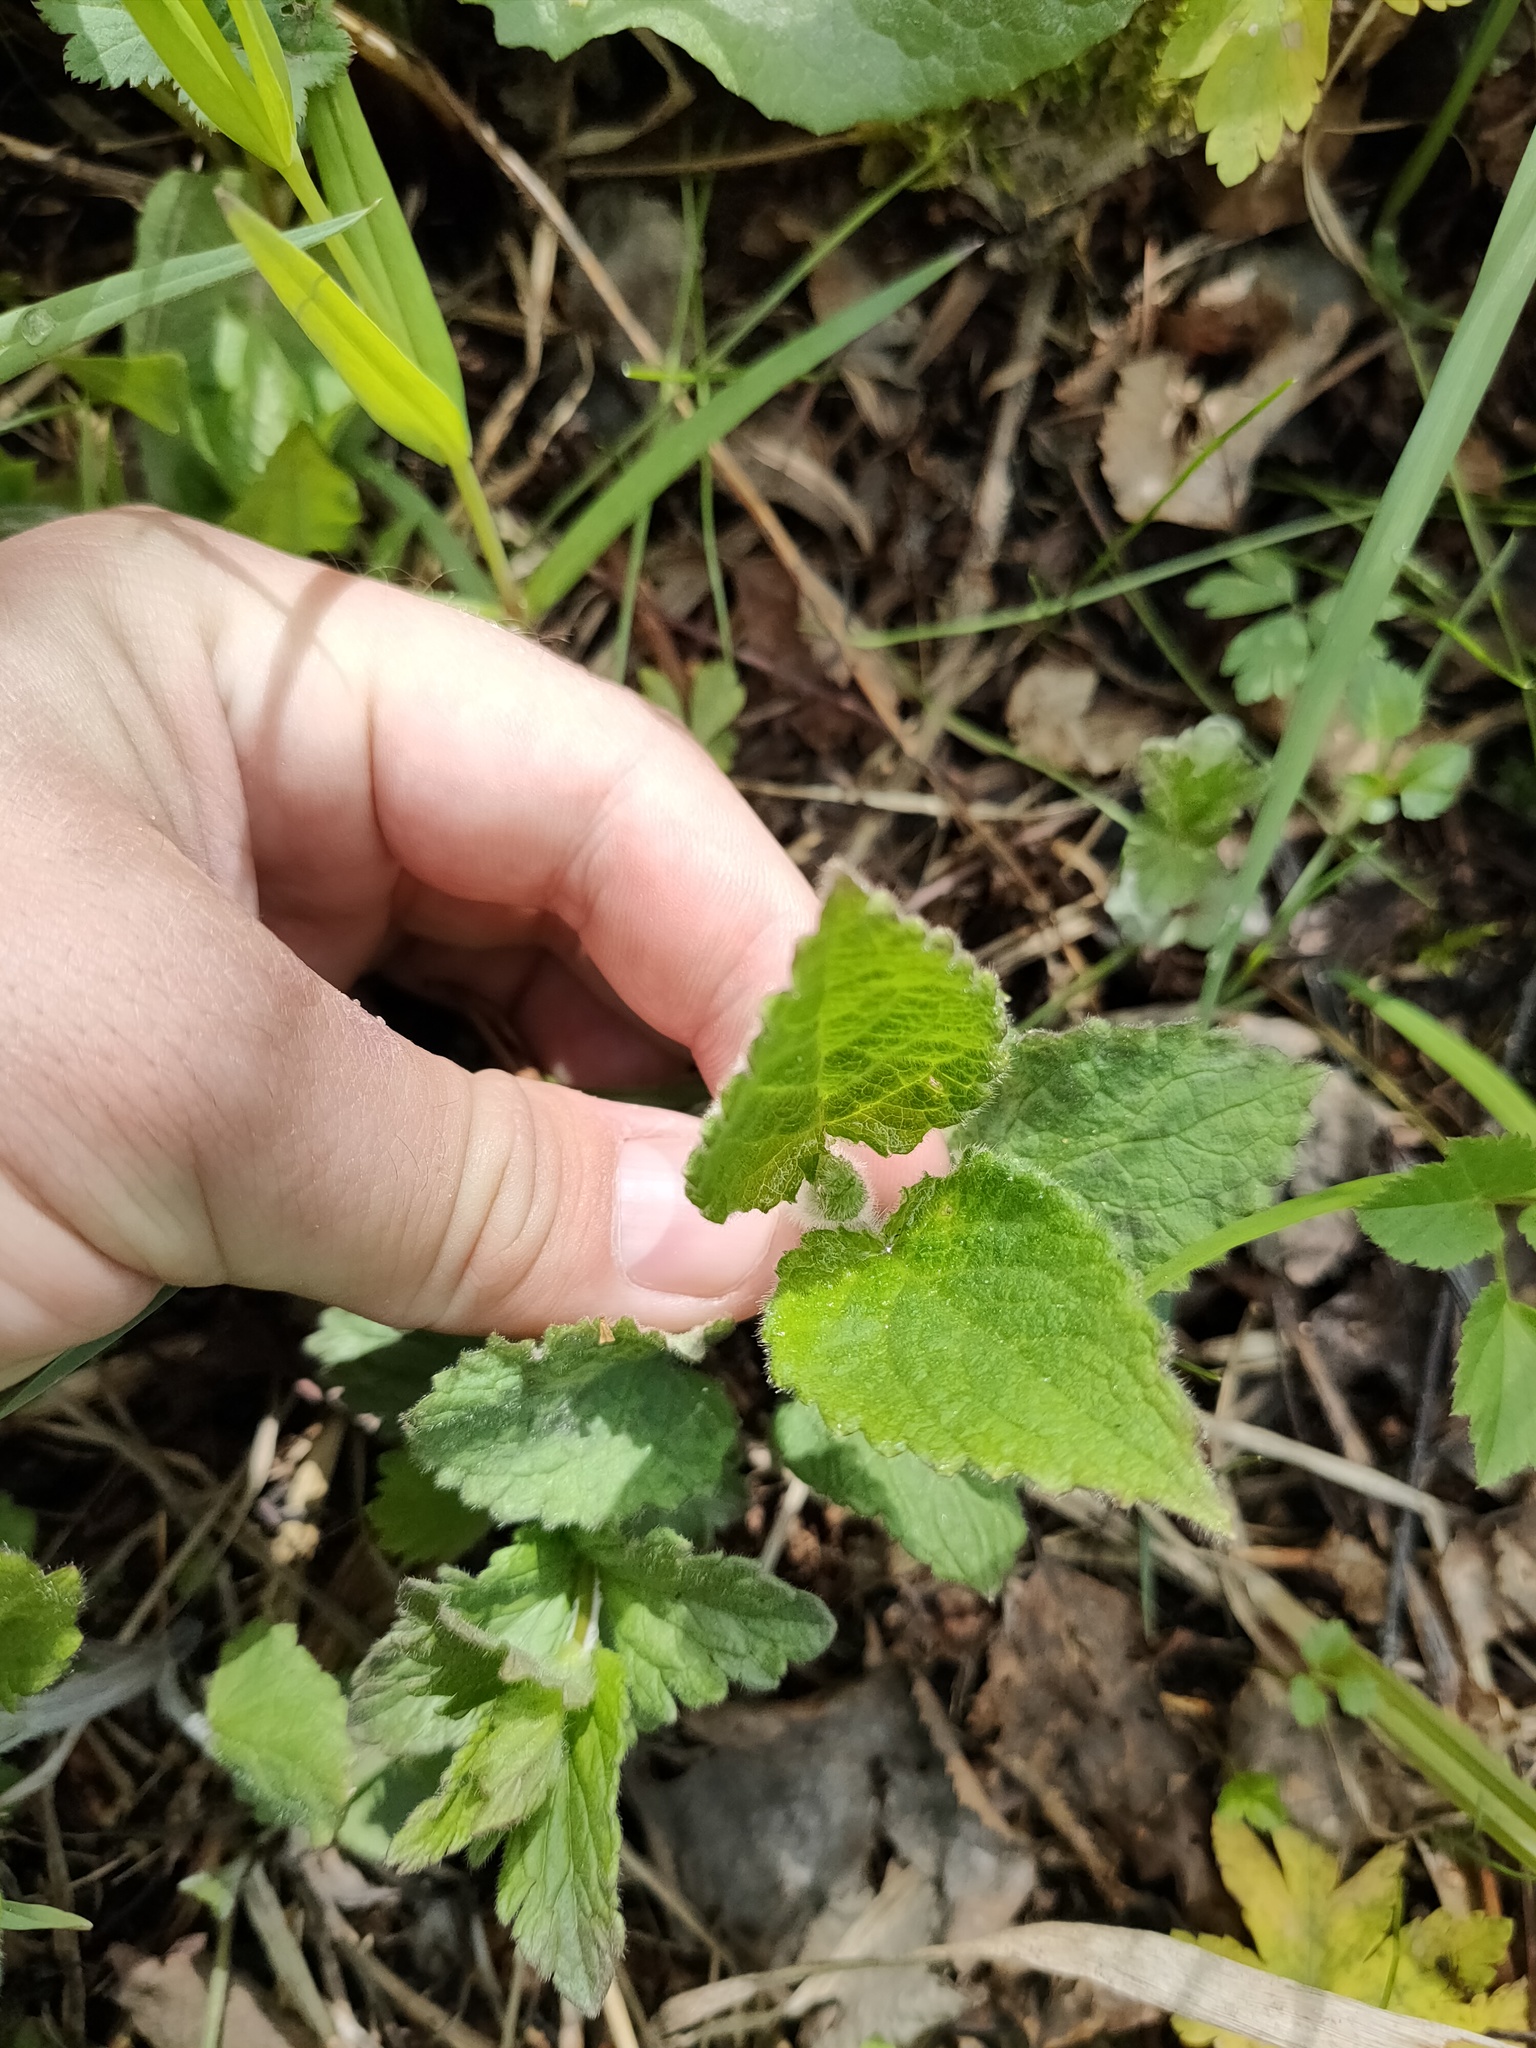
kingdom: Plantae
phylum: Tracheophyta
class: Magnoliopsida
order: Lamiales
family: Lamiaceae
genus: Stachys
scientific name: Stachys sylvatica
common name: Hedge woundwort
